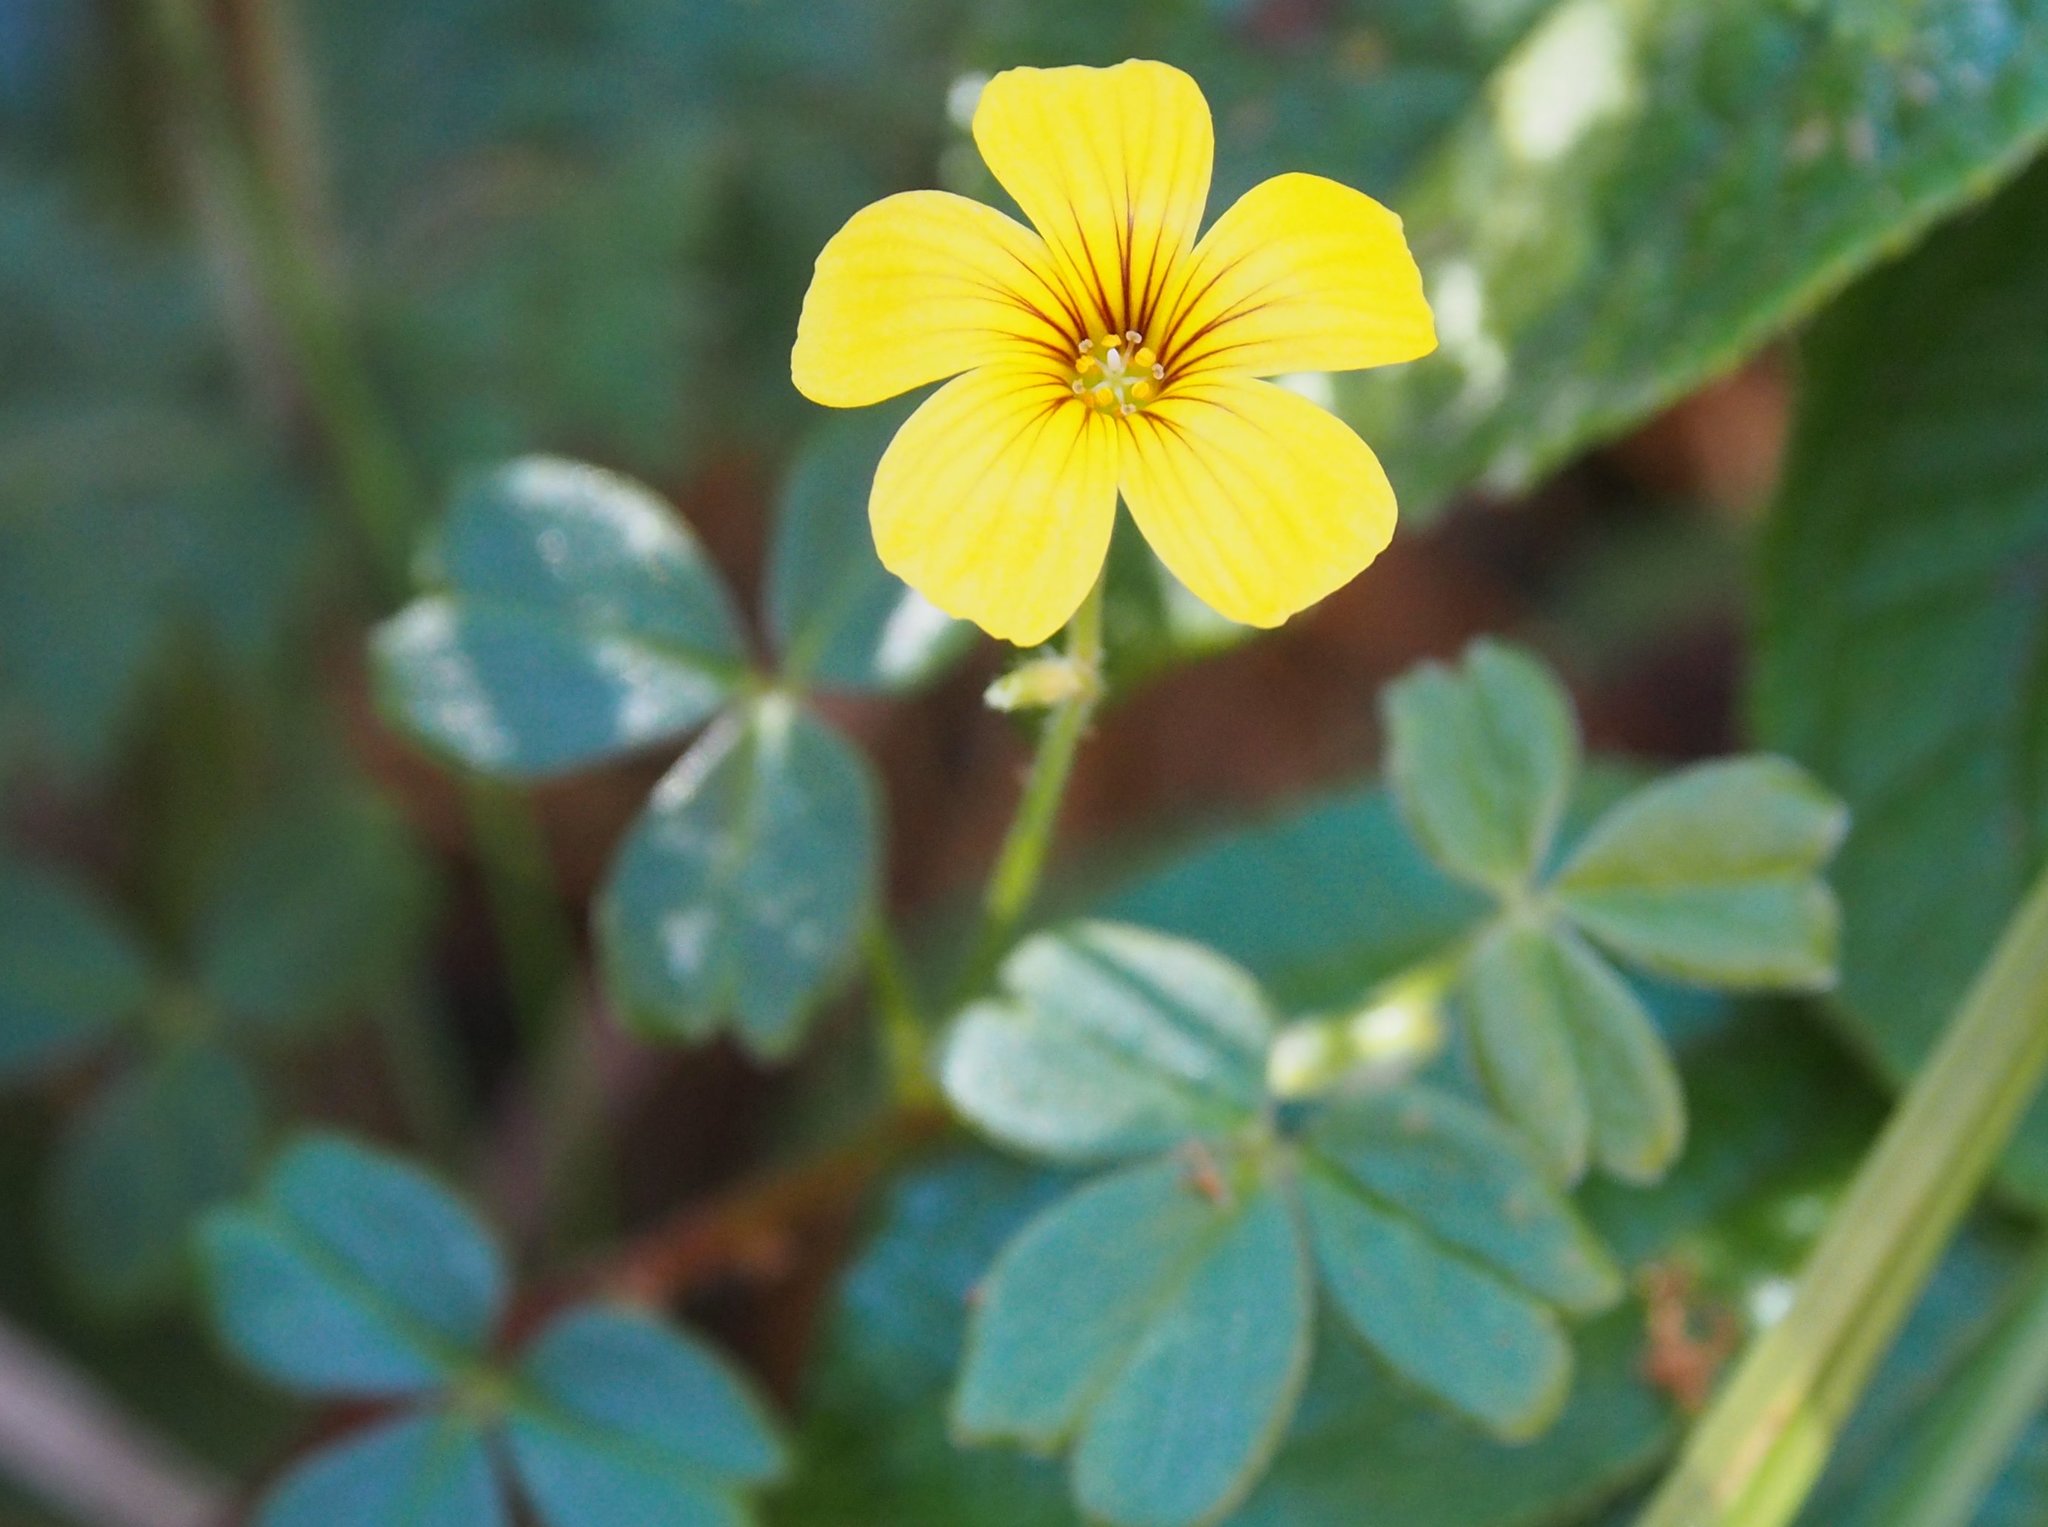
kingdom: Plantae
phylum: Tracheophyta
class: Magnoliopsida
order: Oxalidales
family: Oxalidaceae
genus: Oxalis
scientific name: Oxalis spiralis
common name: Spiral sorrel
